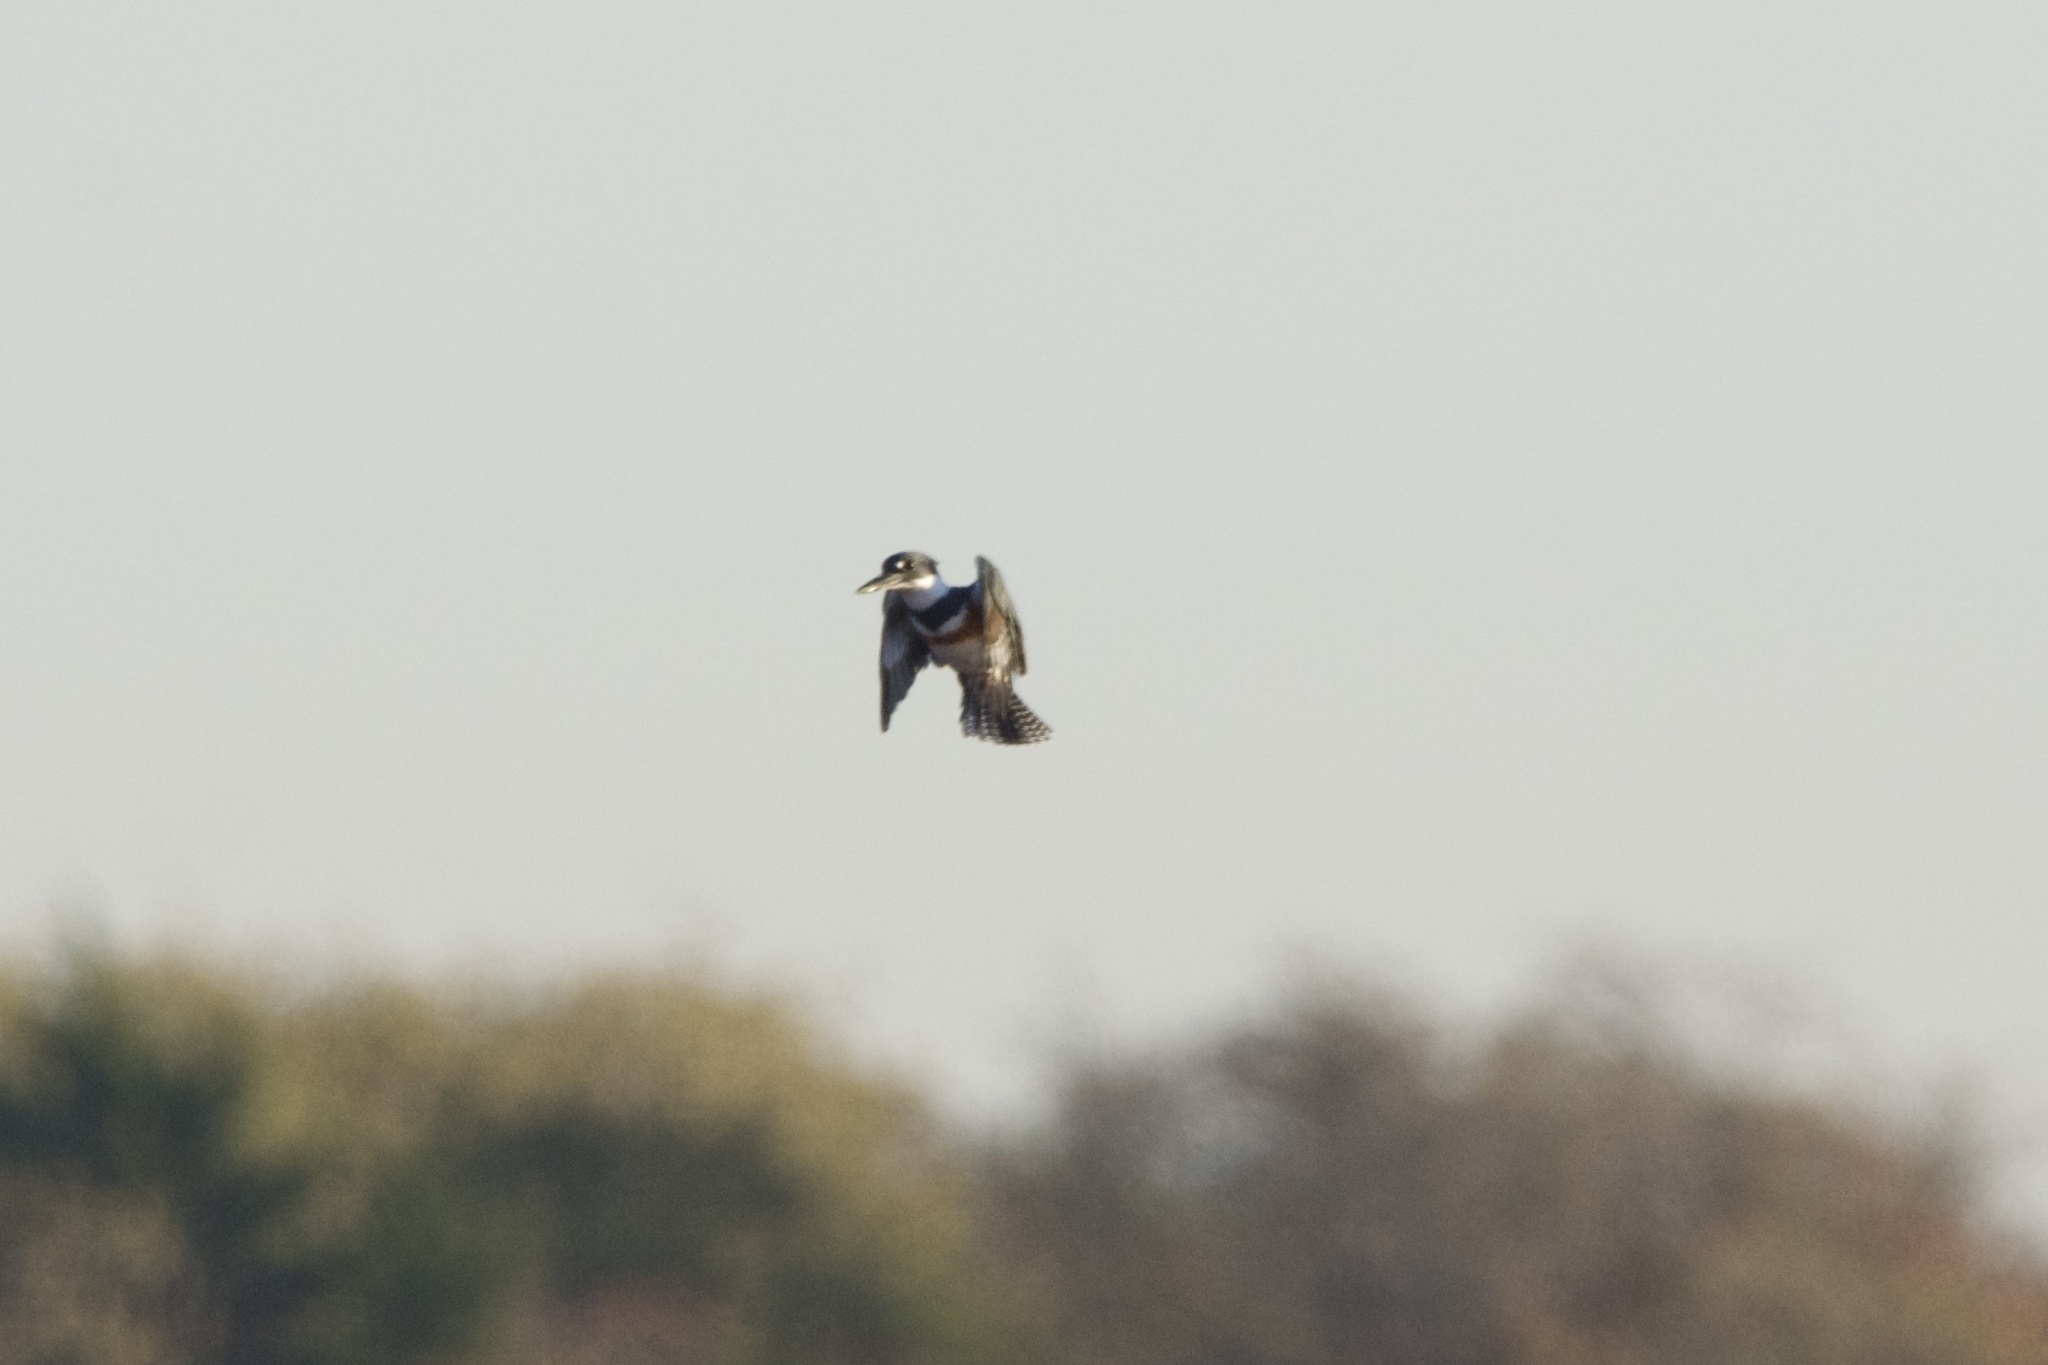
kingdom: Animalia
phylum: Chordata
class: Aves
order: Coraciiformes
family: Alcedinidae
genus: Megaceryle
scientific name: Megaceryle alcyon
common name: Belted kingfisher
